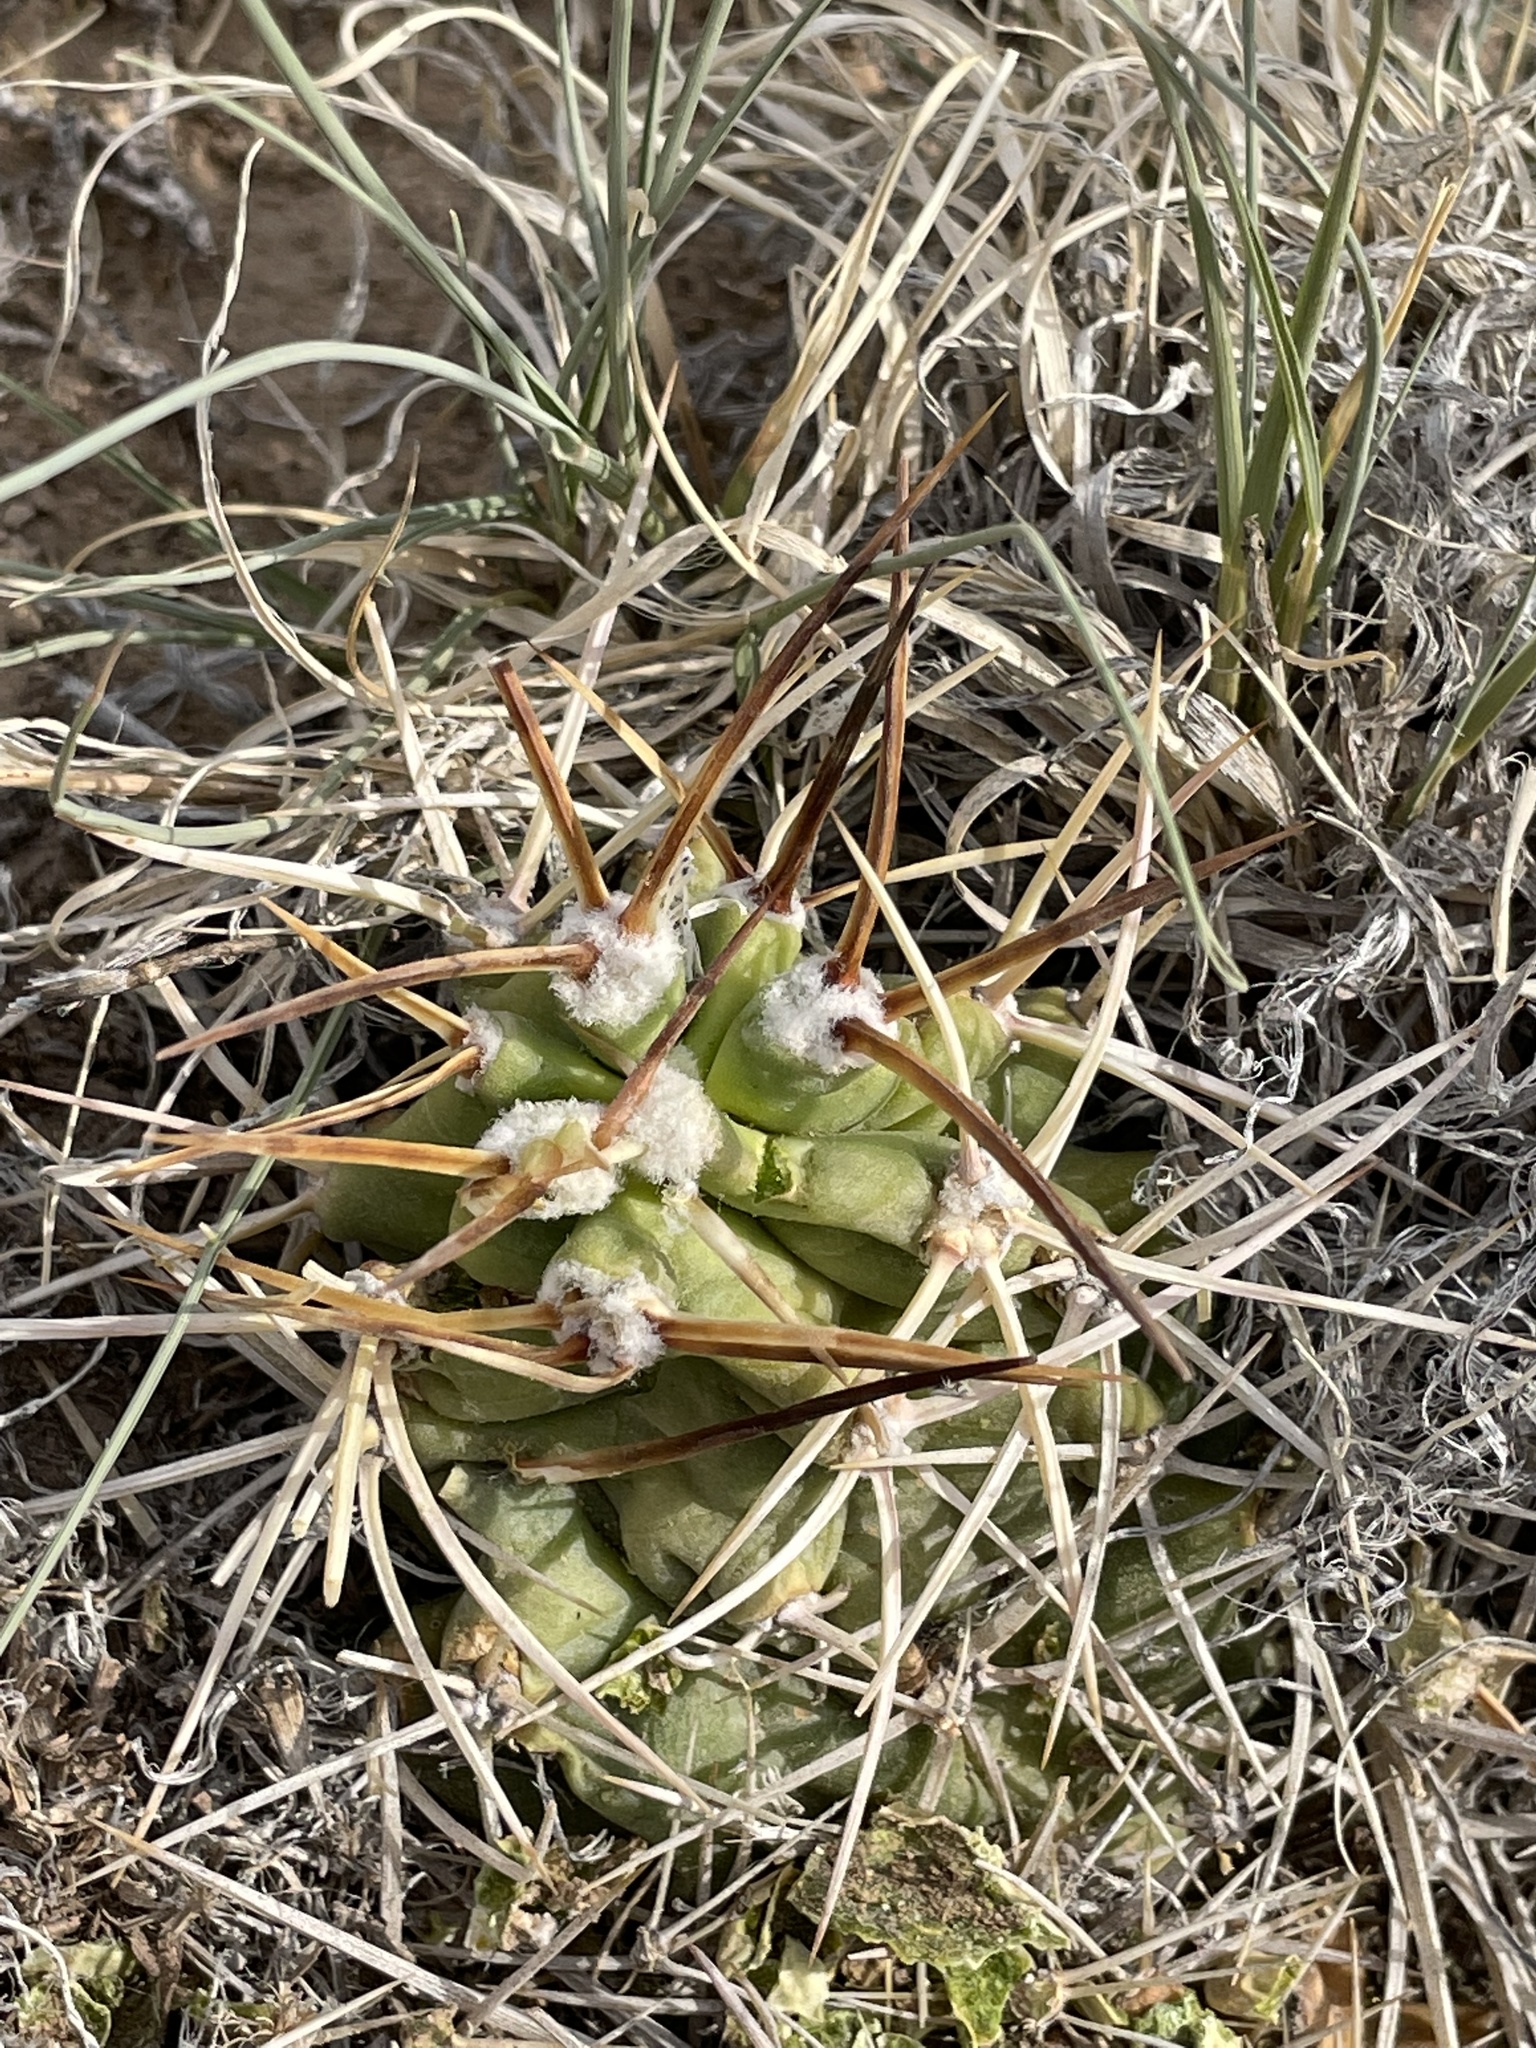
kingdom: Plantae
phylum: Tracheophyta
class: Magnoliopsida
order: Caryophyllales
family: Cactaceae
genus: Echinocereus
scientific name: Echinocereus triglochidiatus
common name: Claretcup hedgehog
